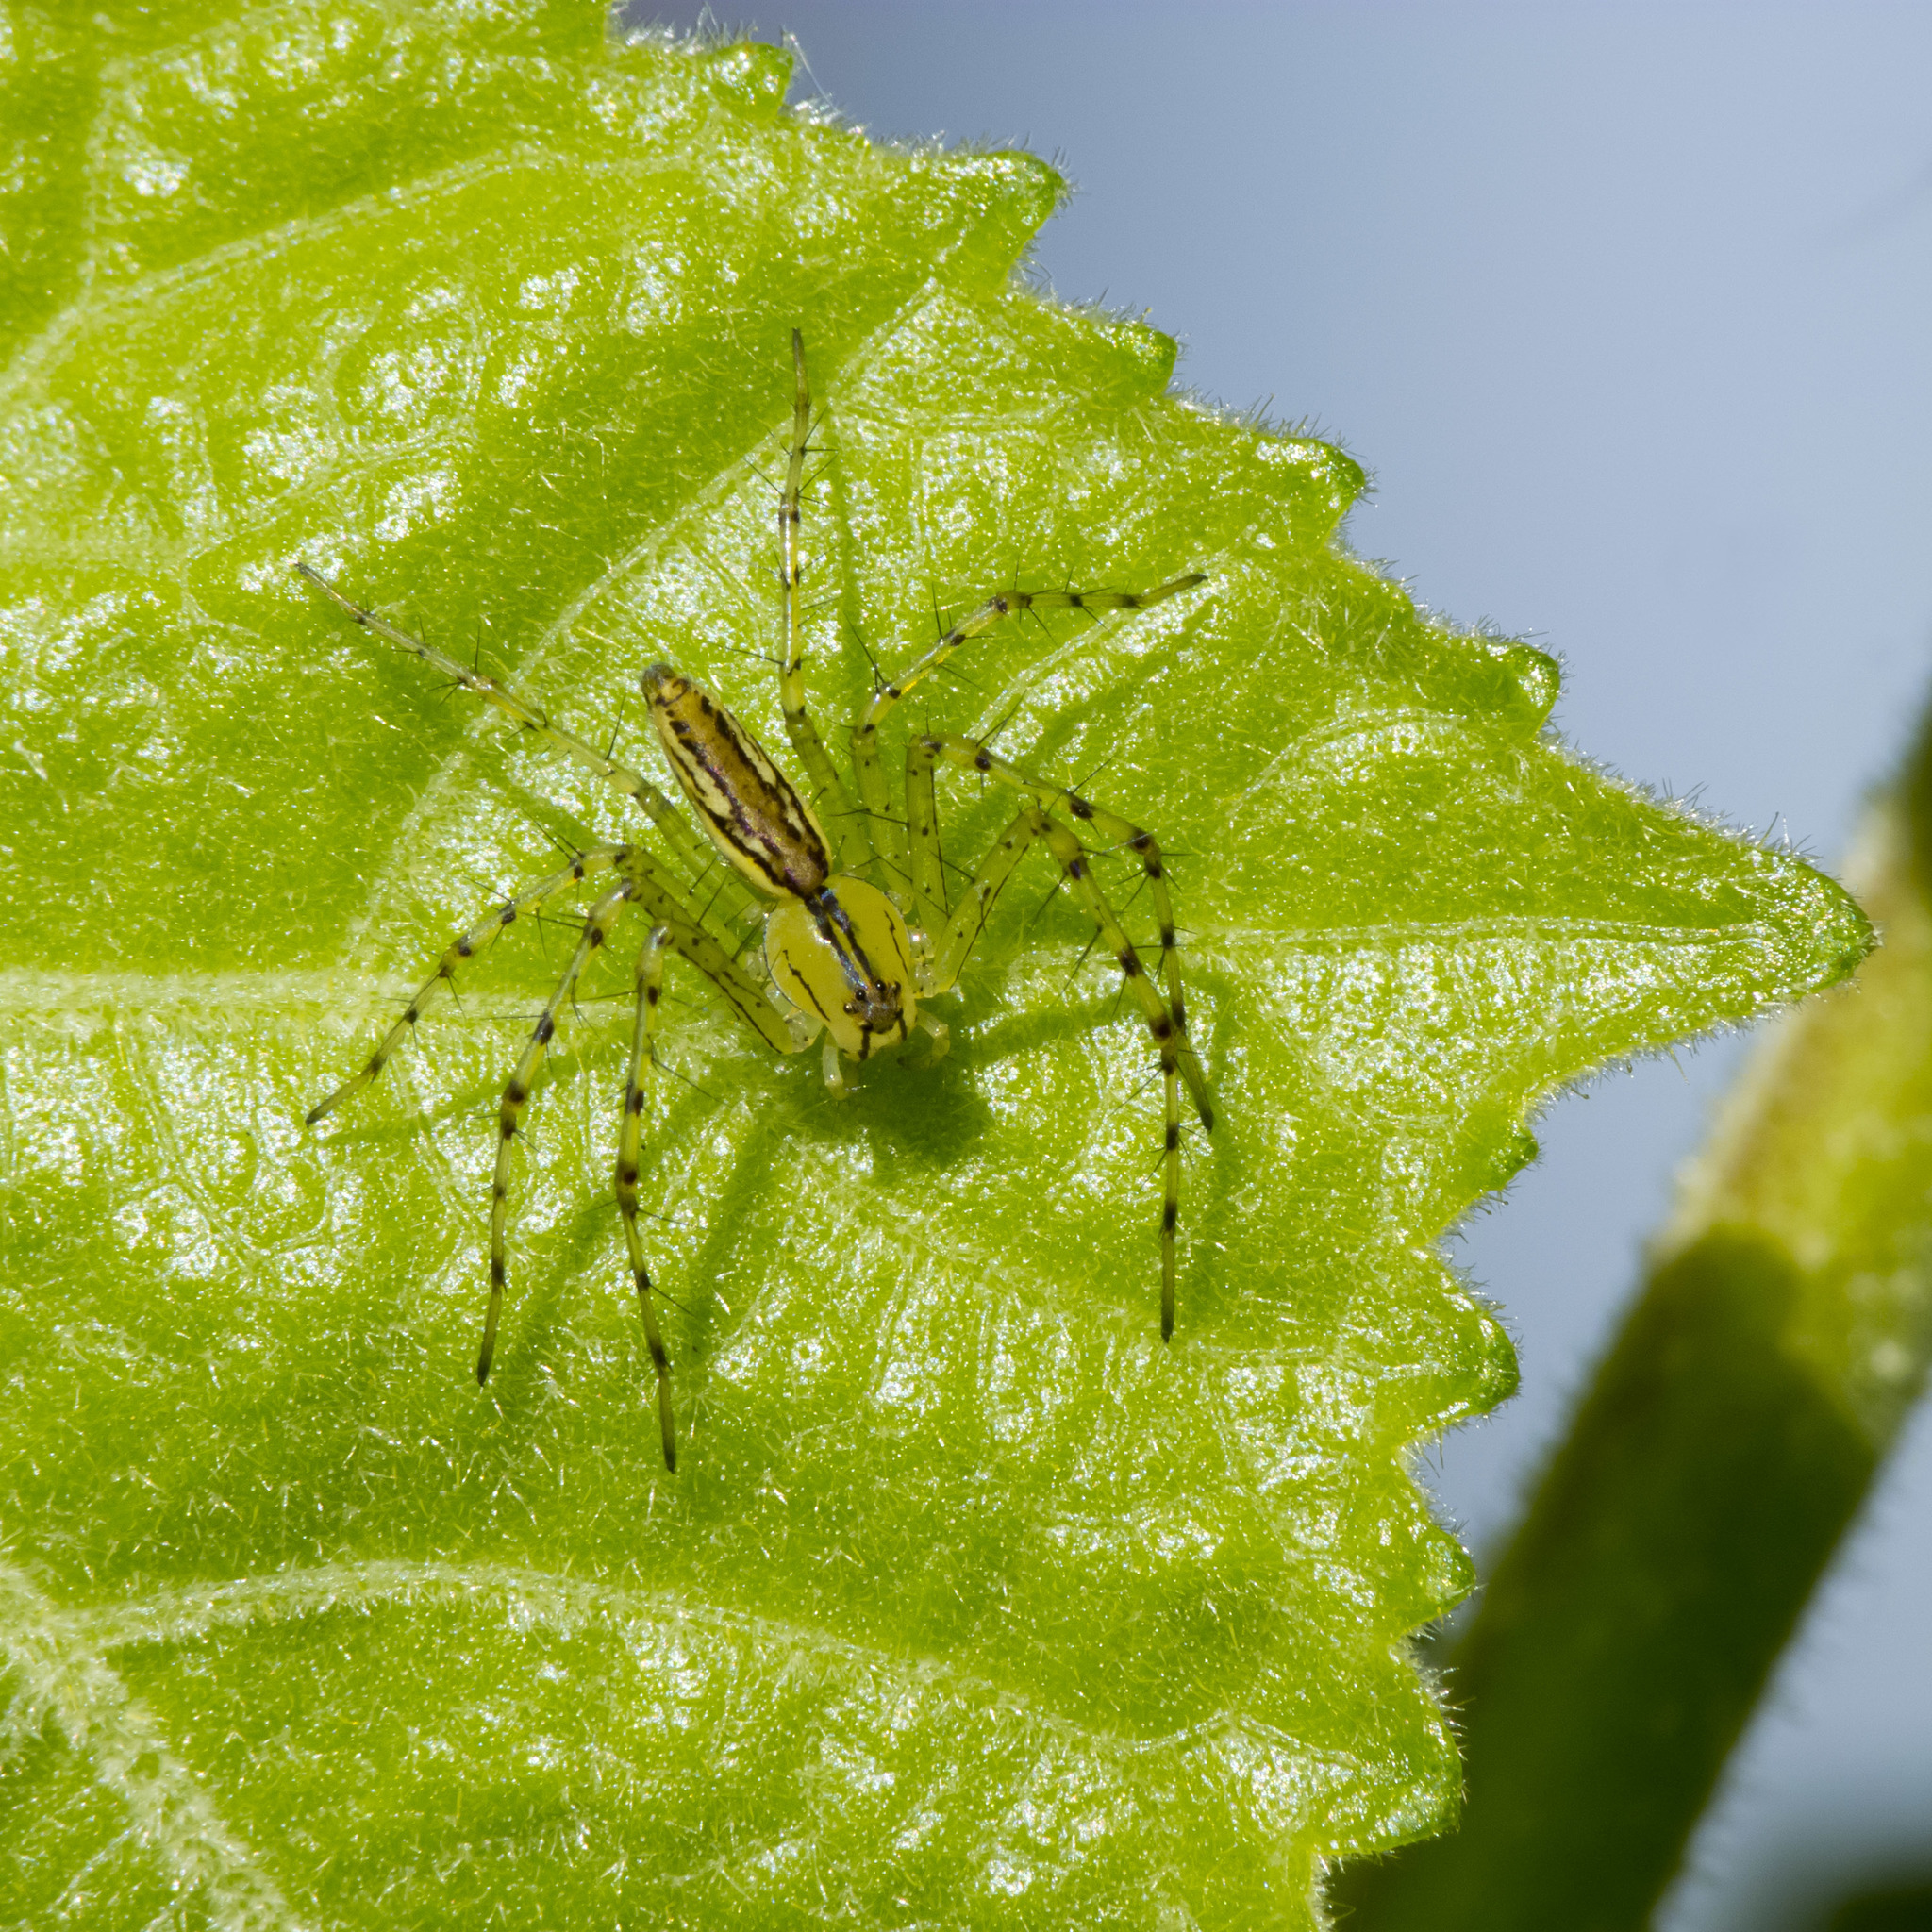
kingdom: Animalia
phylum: Arthropoda
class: Arachnida
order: Araneae
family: Oxyopidae
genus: Peucetia
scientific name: Peucetia rubrolineata
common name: Lynx spiders
